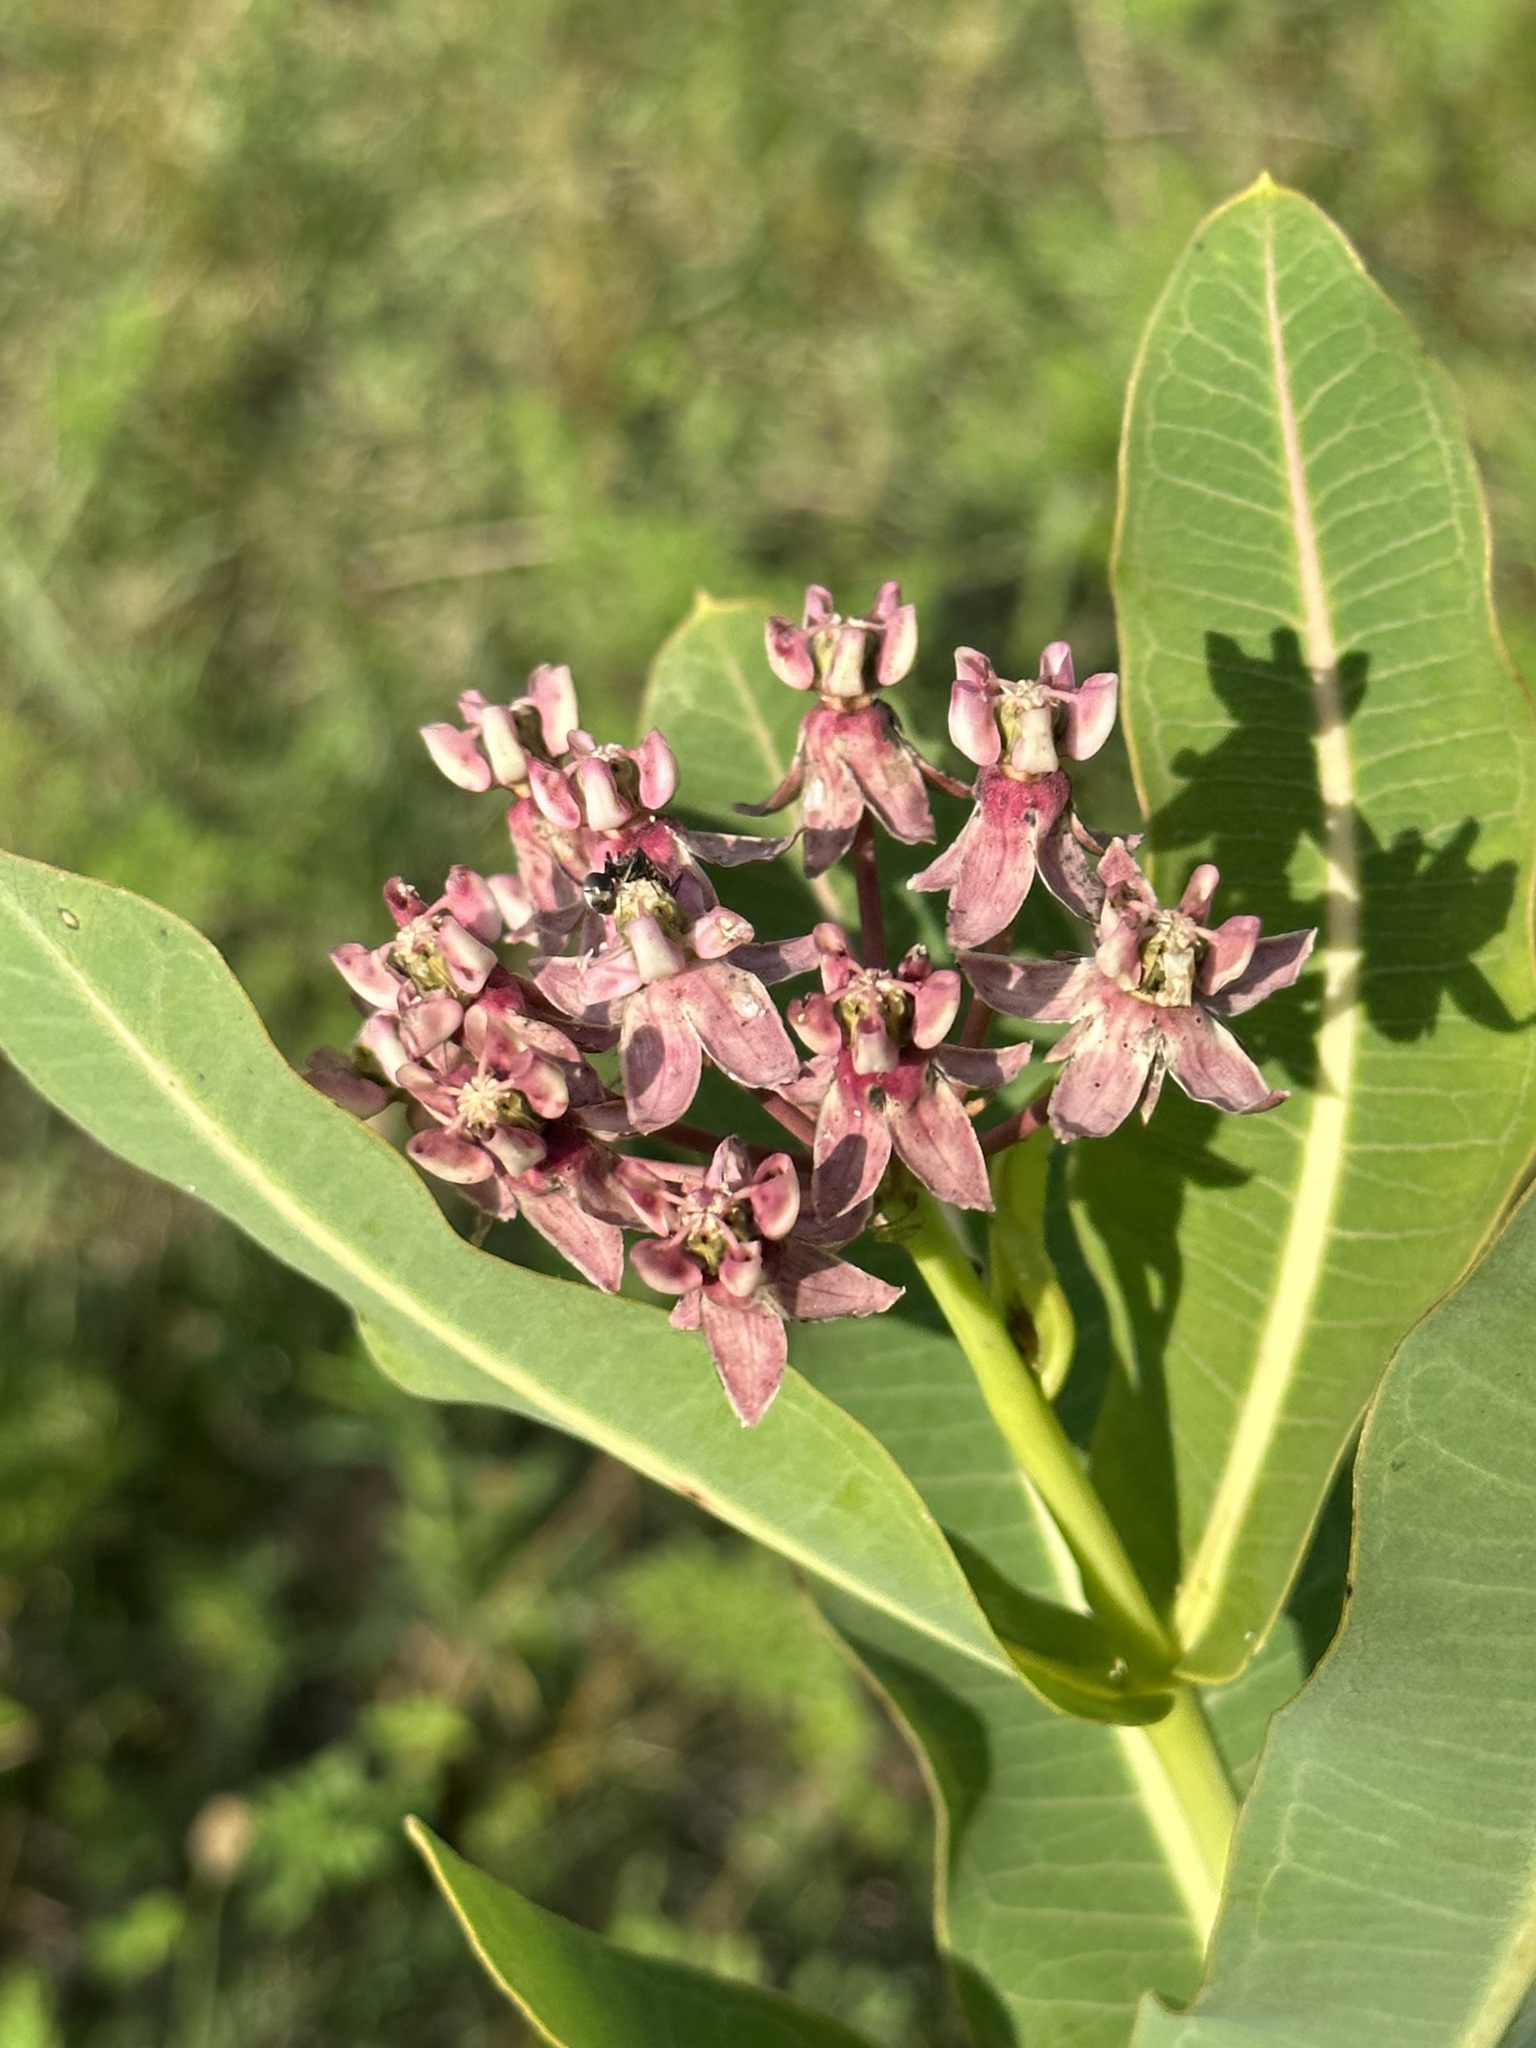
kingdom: Plantae
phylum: Tracheophyta
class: Magnoliopsida
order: Gentianales
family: Apocynaceae
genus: Asclepias
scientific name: Asclepias sullivantii
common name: Prairie milkweed
